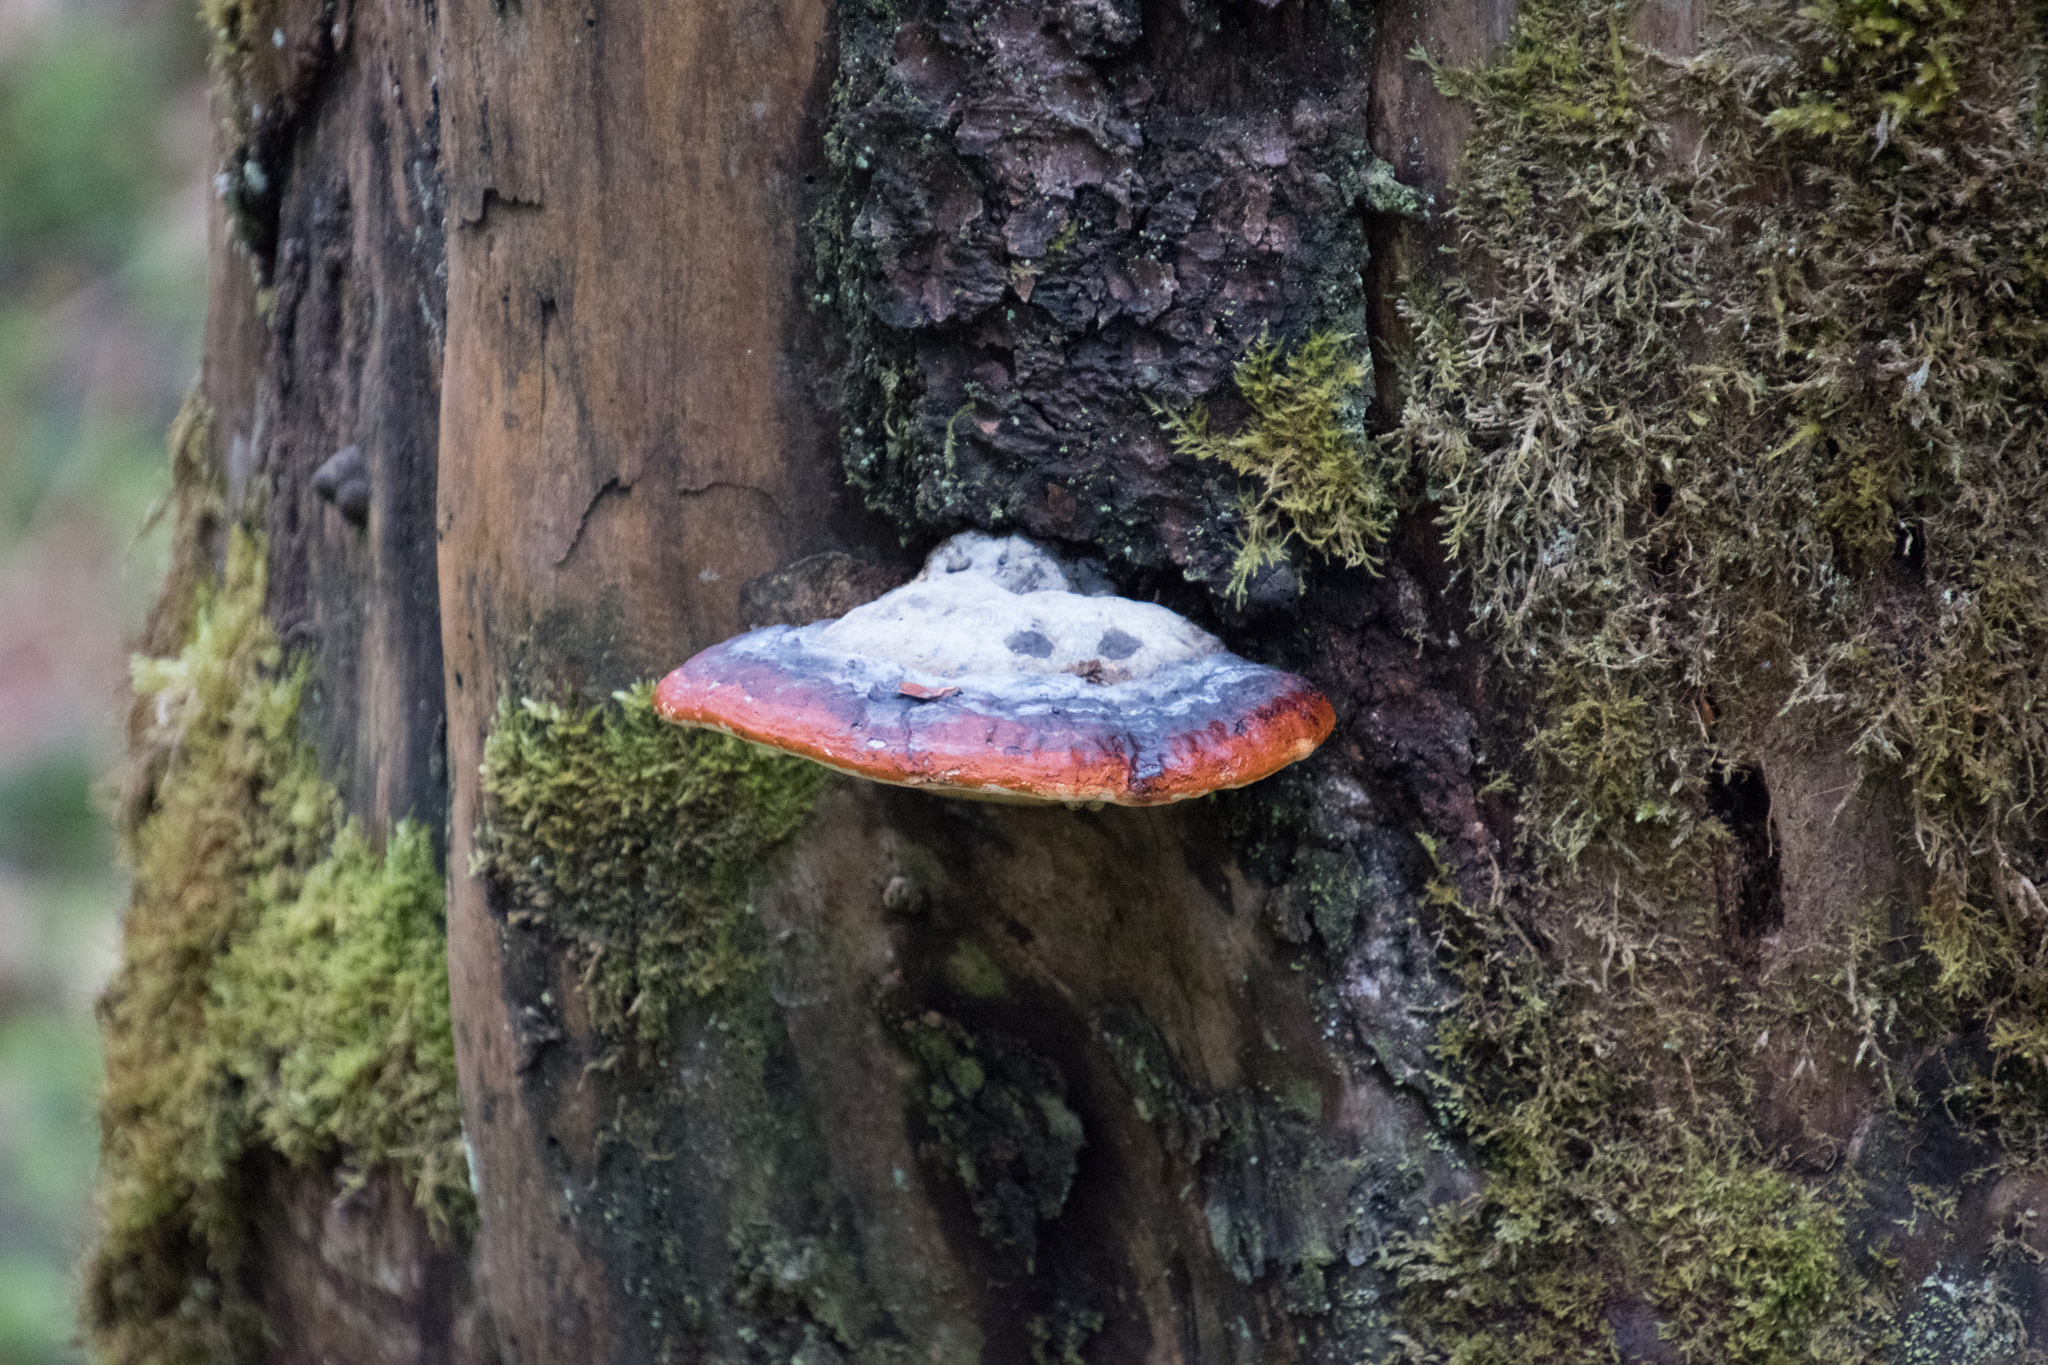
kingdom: Fungi
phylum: Basidiomycota
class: Agaricomycetes
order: Polyporales
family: Fomitopsidaceae
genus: Fomitopsis
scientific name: Fomitopsis pinicola
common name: Red-belted bracket
